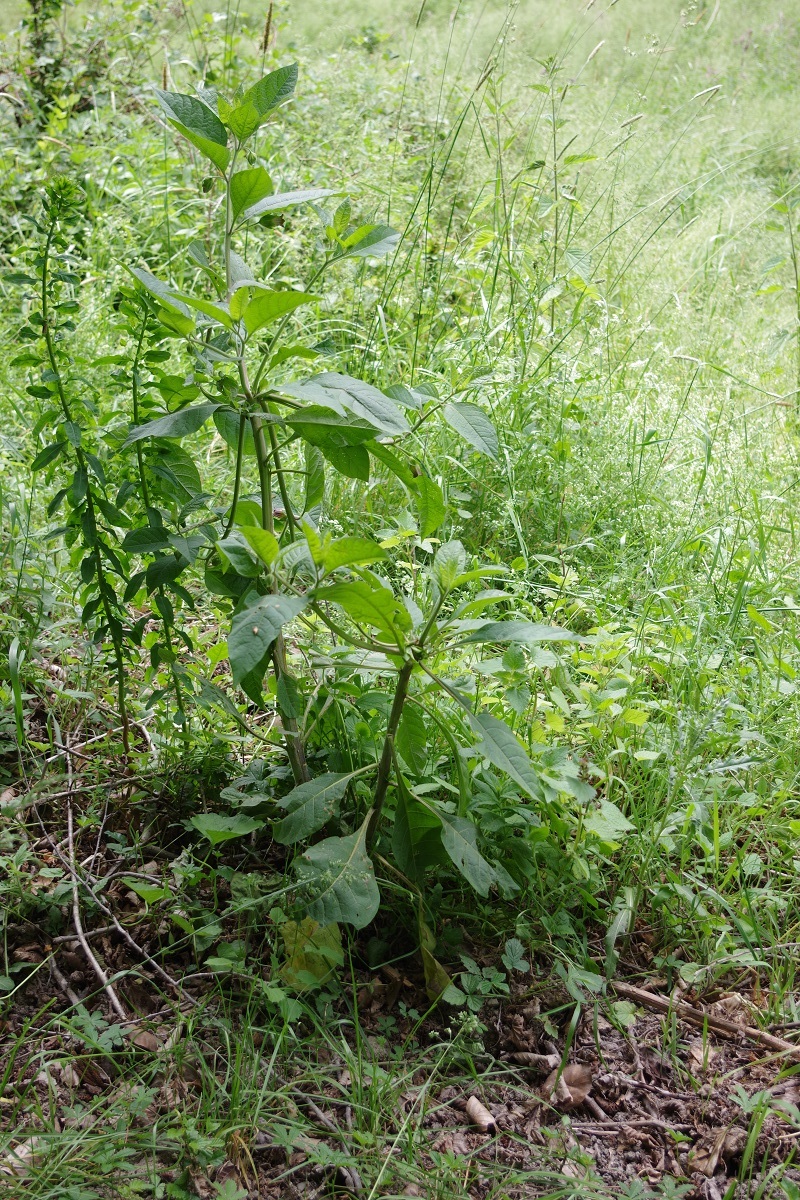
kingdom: Plantae
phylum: Tracheophyta
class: Magnoliopsida
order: Solanales
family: Solanaceae
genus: Atropa
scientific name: Atropa belladonna
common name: Deadly nightshade
